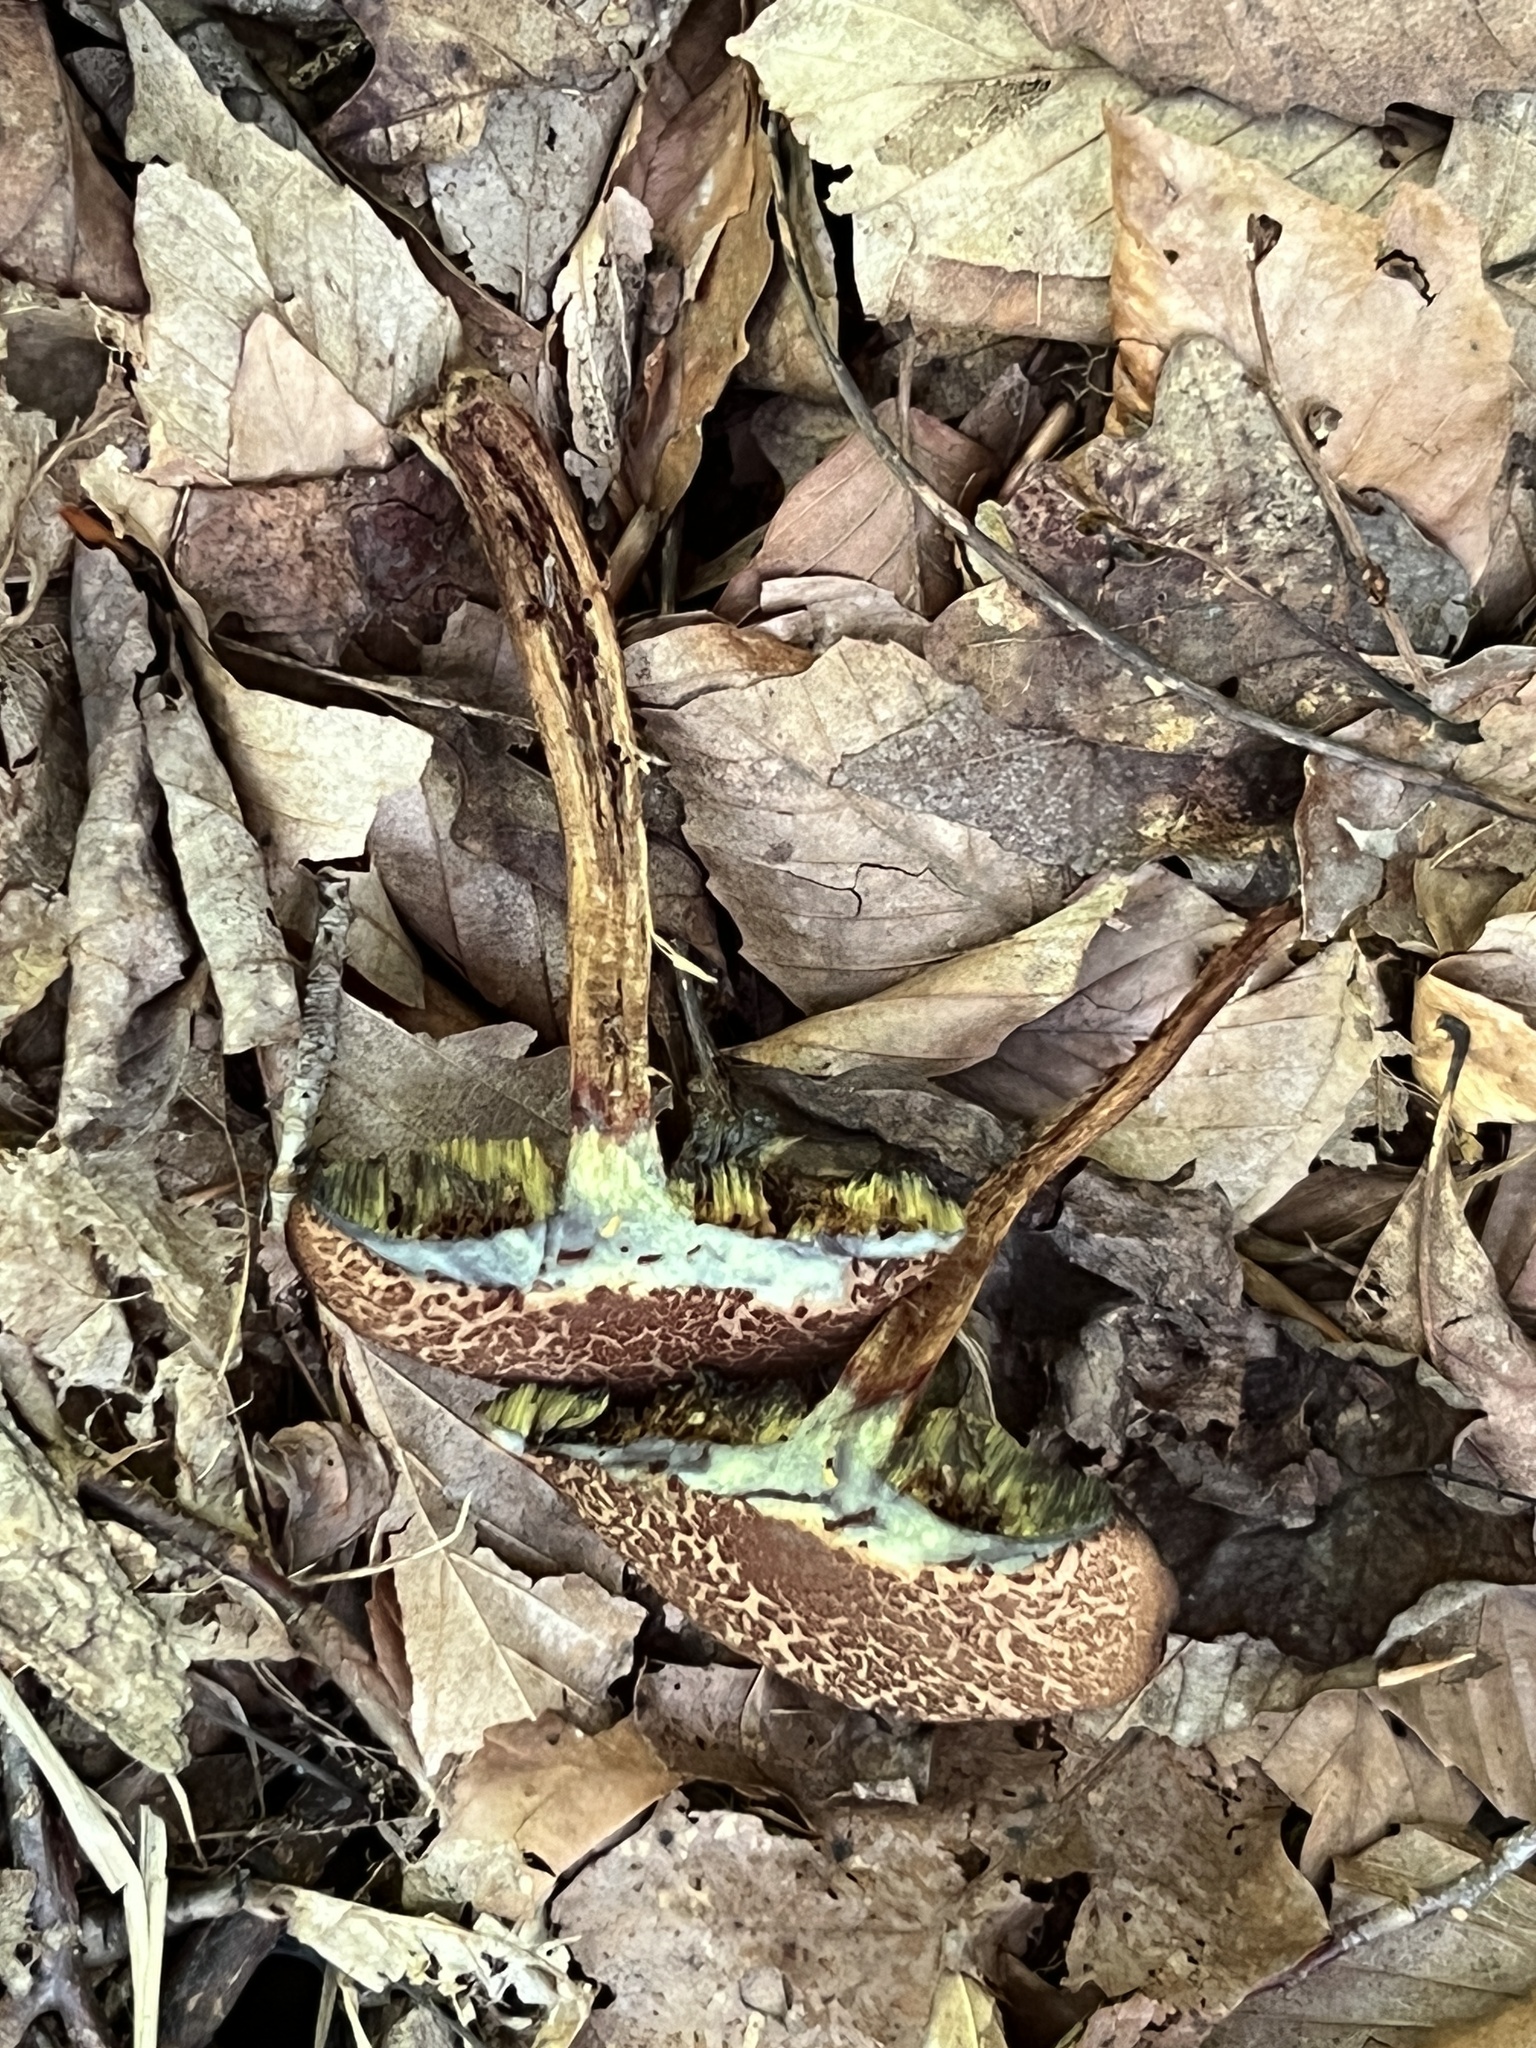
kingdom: Fungi
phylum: Basidiomycota
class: Agaricomycetes
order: Boletales
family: Boletaceae
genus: Porphyrellus
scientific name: Porphyrellus sordidus
